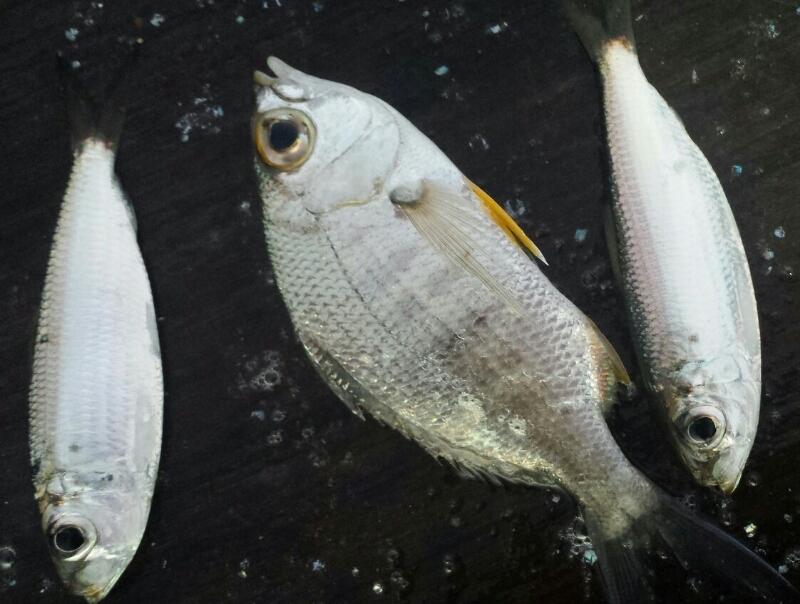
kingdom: Animalia
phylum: Chordata
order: Perciformes
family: Gerreidae
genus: Gerres
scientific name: Gerres cinereus
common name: Hedow
